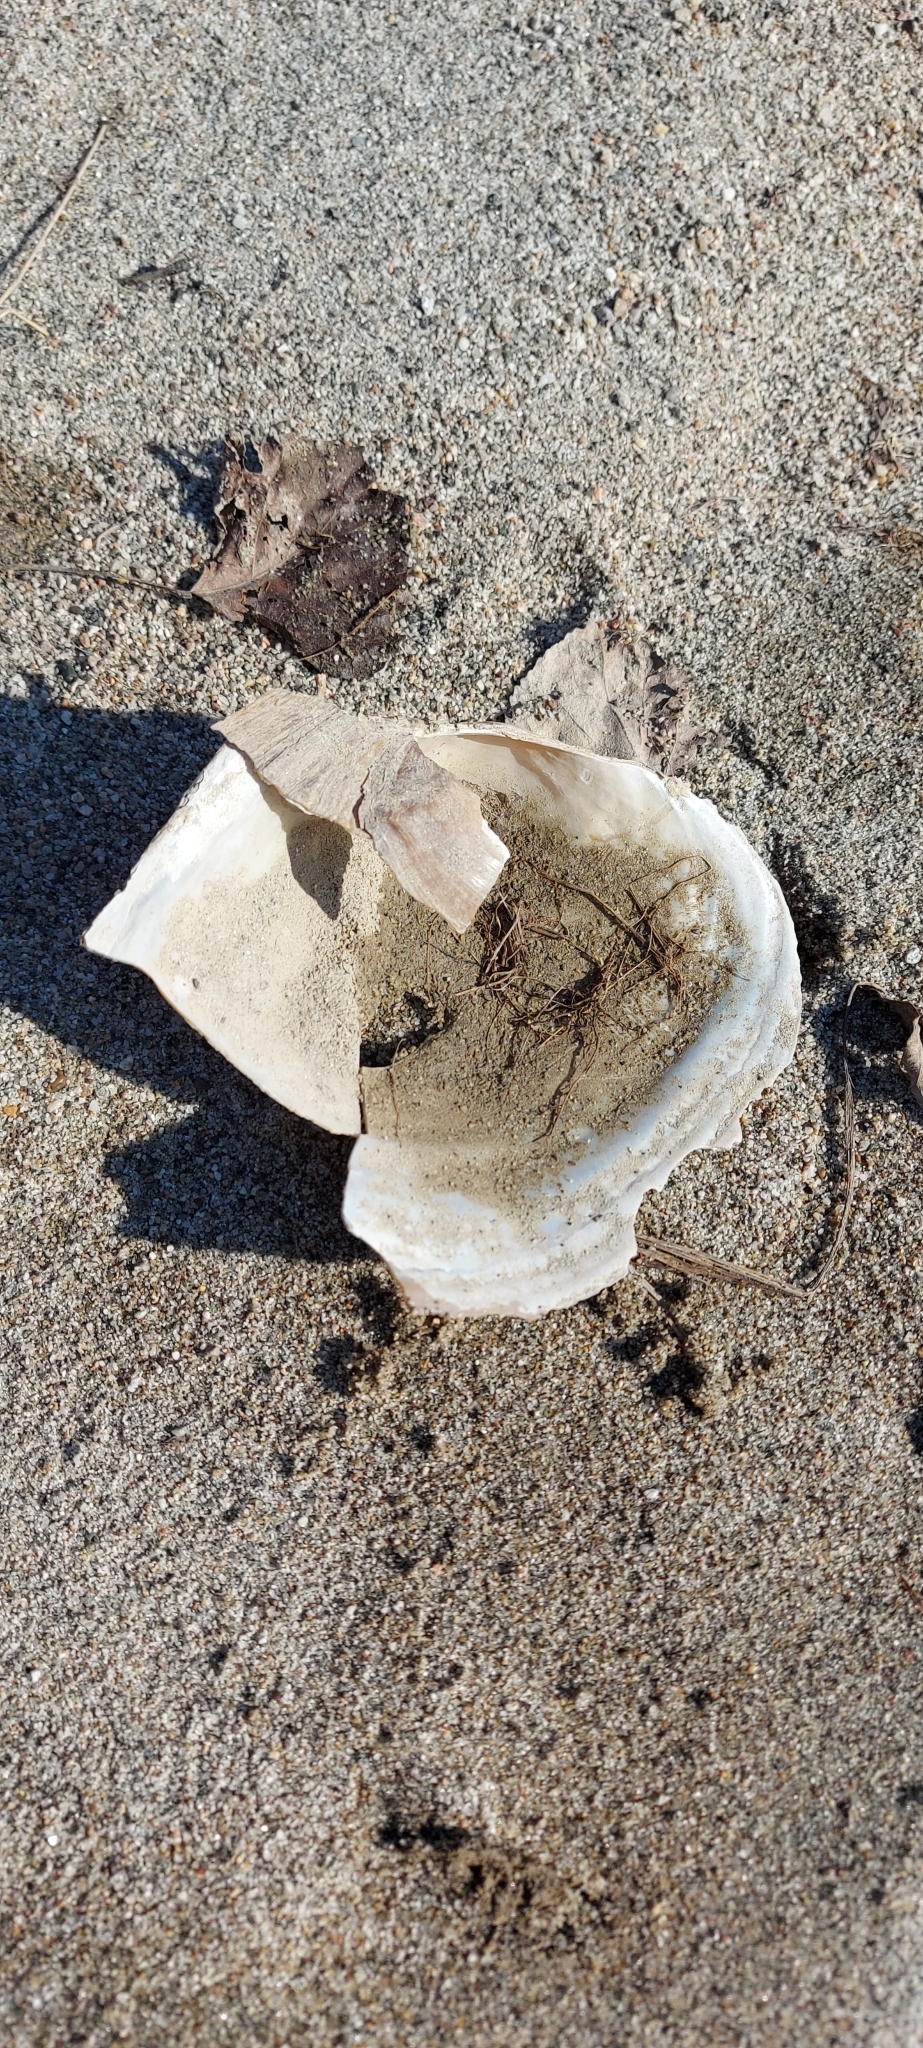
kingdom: Animalia
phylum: Mollusca
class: Bivalvia
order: Unionida
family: Unionidae
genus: Sinanodonta
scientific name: Sinanodonta woodiana
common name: Chinese pond mussel
